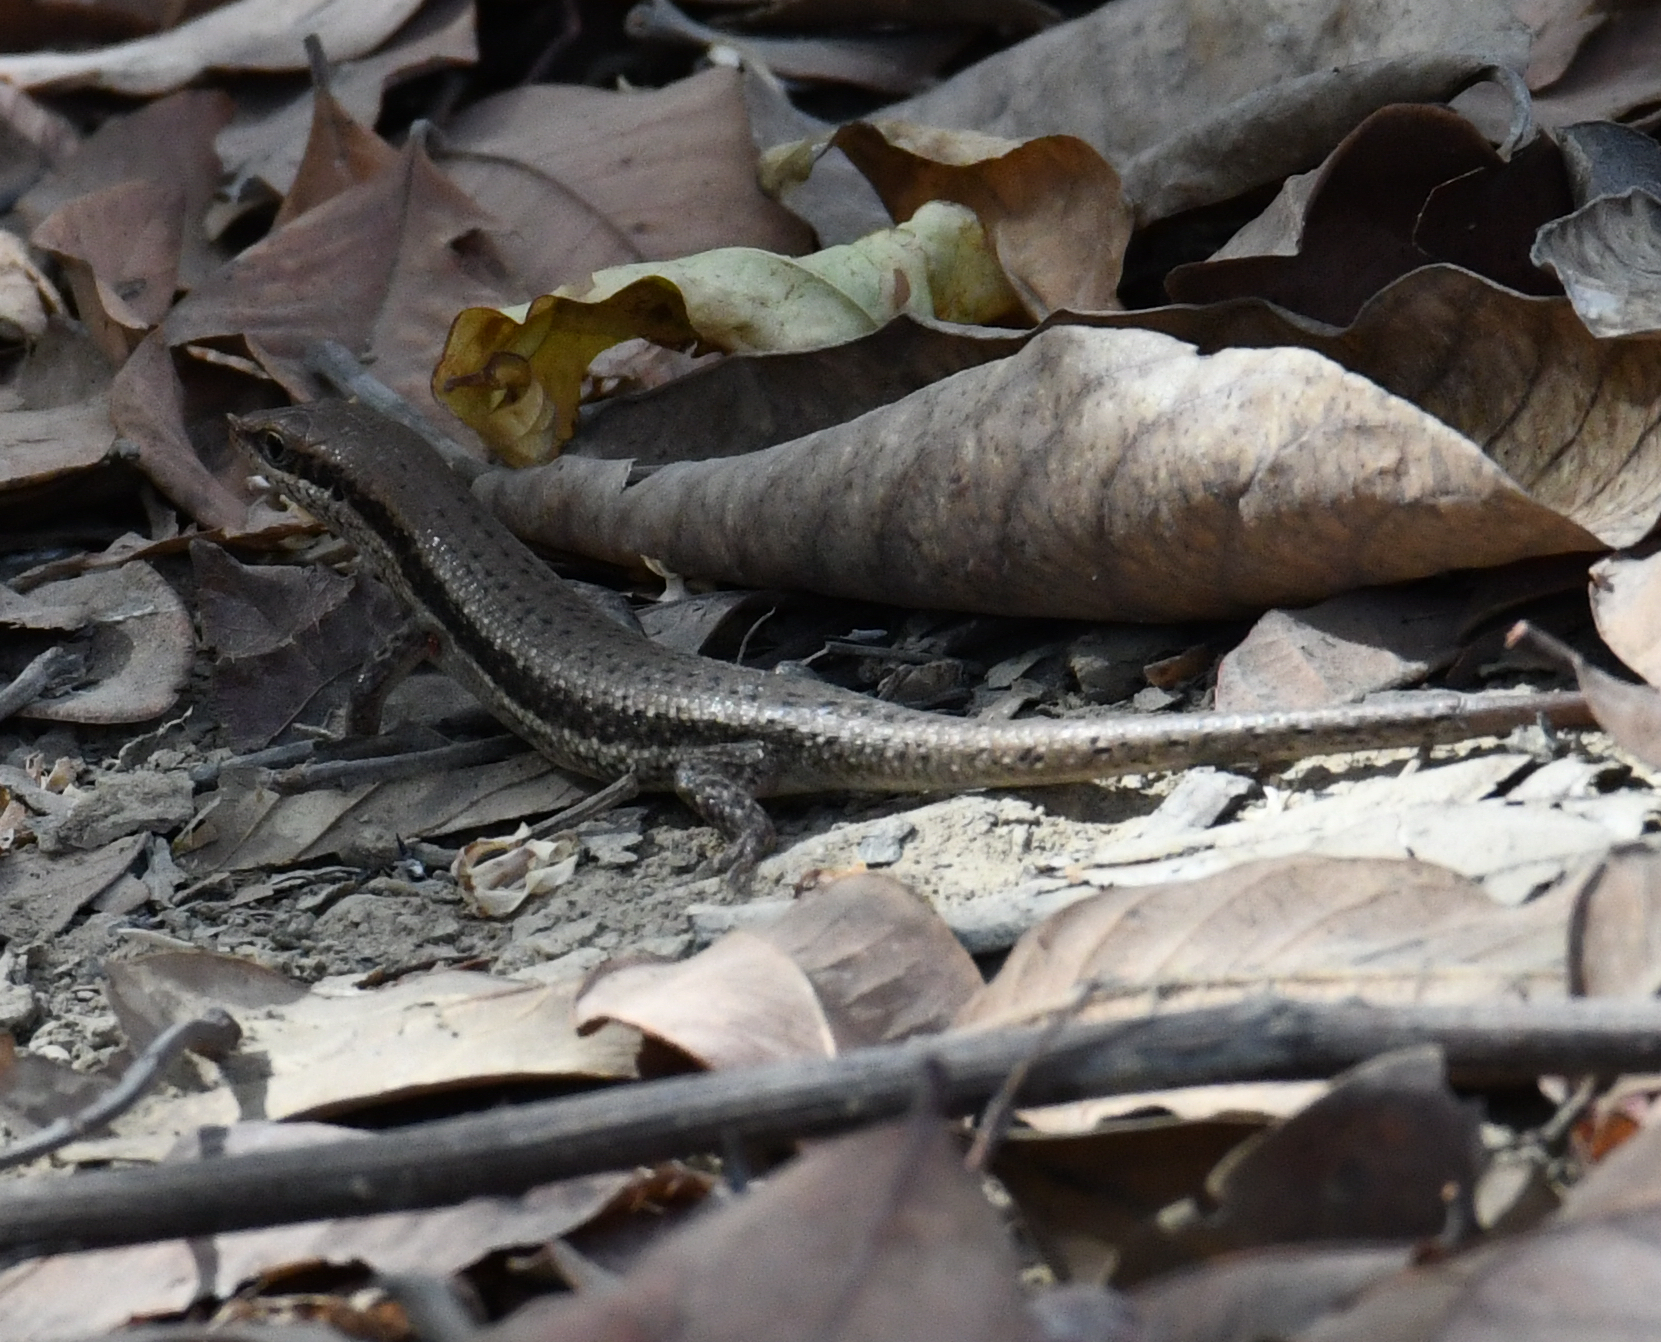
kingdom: Animalia
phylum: Chordata
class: Squamata
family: Scincidae
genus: Trachylepis
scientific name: Trachylepis affinis
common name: Senegal mabuya
